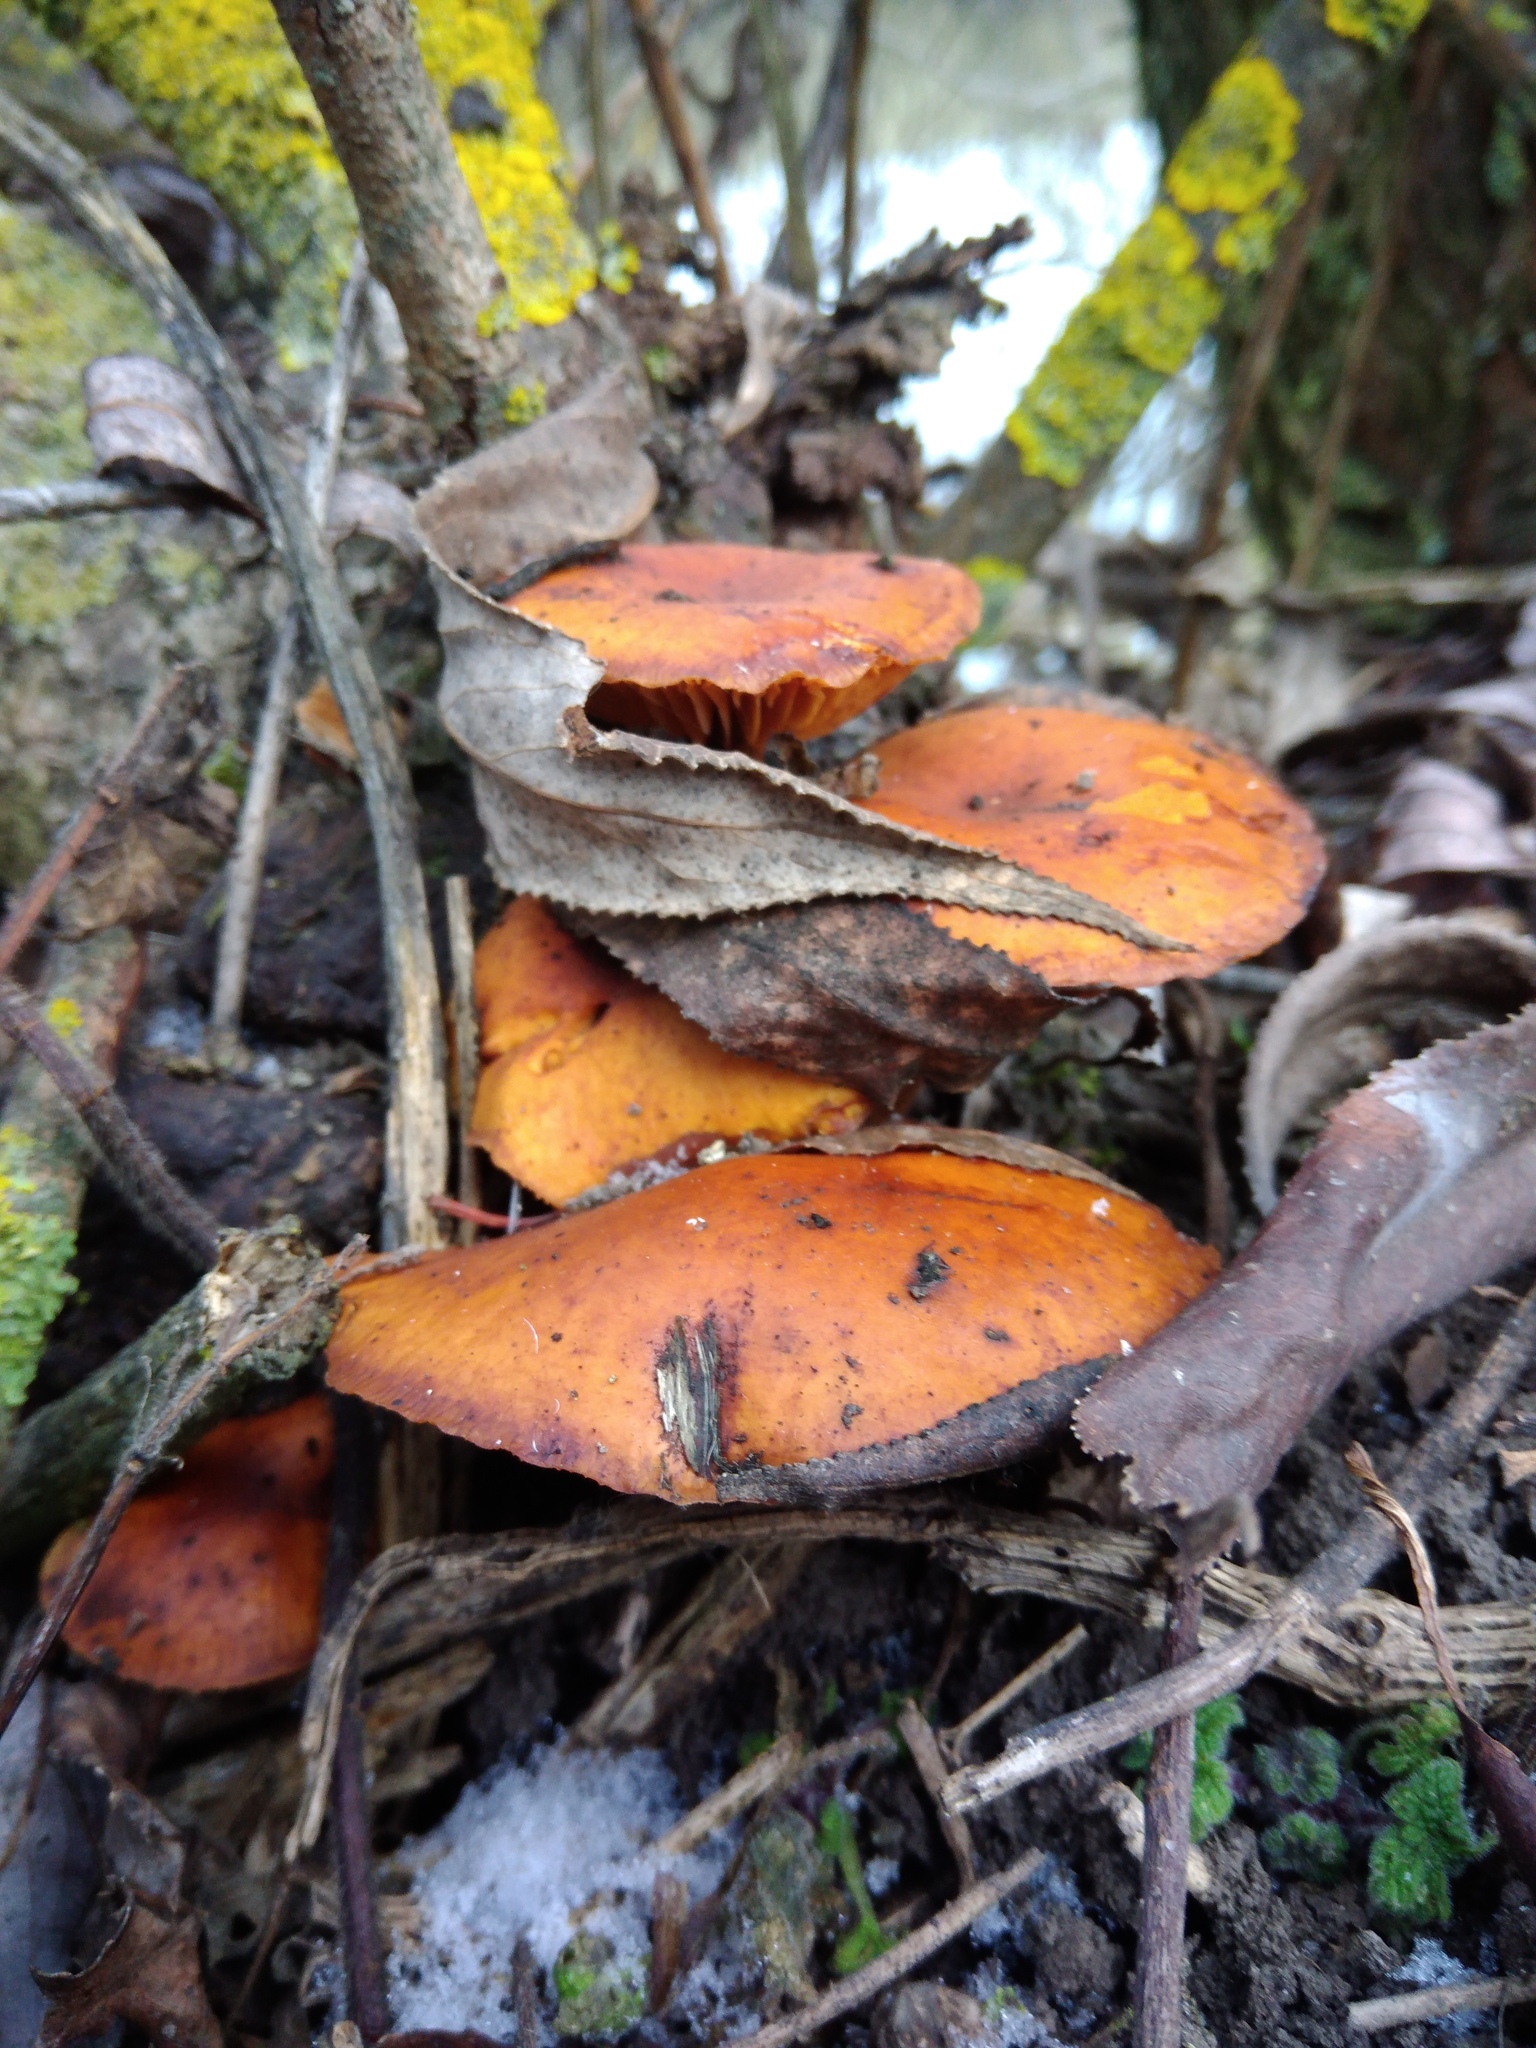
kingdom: Fungi
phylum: Basidiomycota
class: Agaricomycetes
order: Agaricales
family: Physalacriaceae
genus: Flammulina
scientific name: Flammulina
